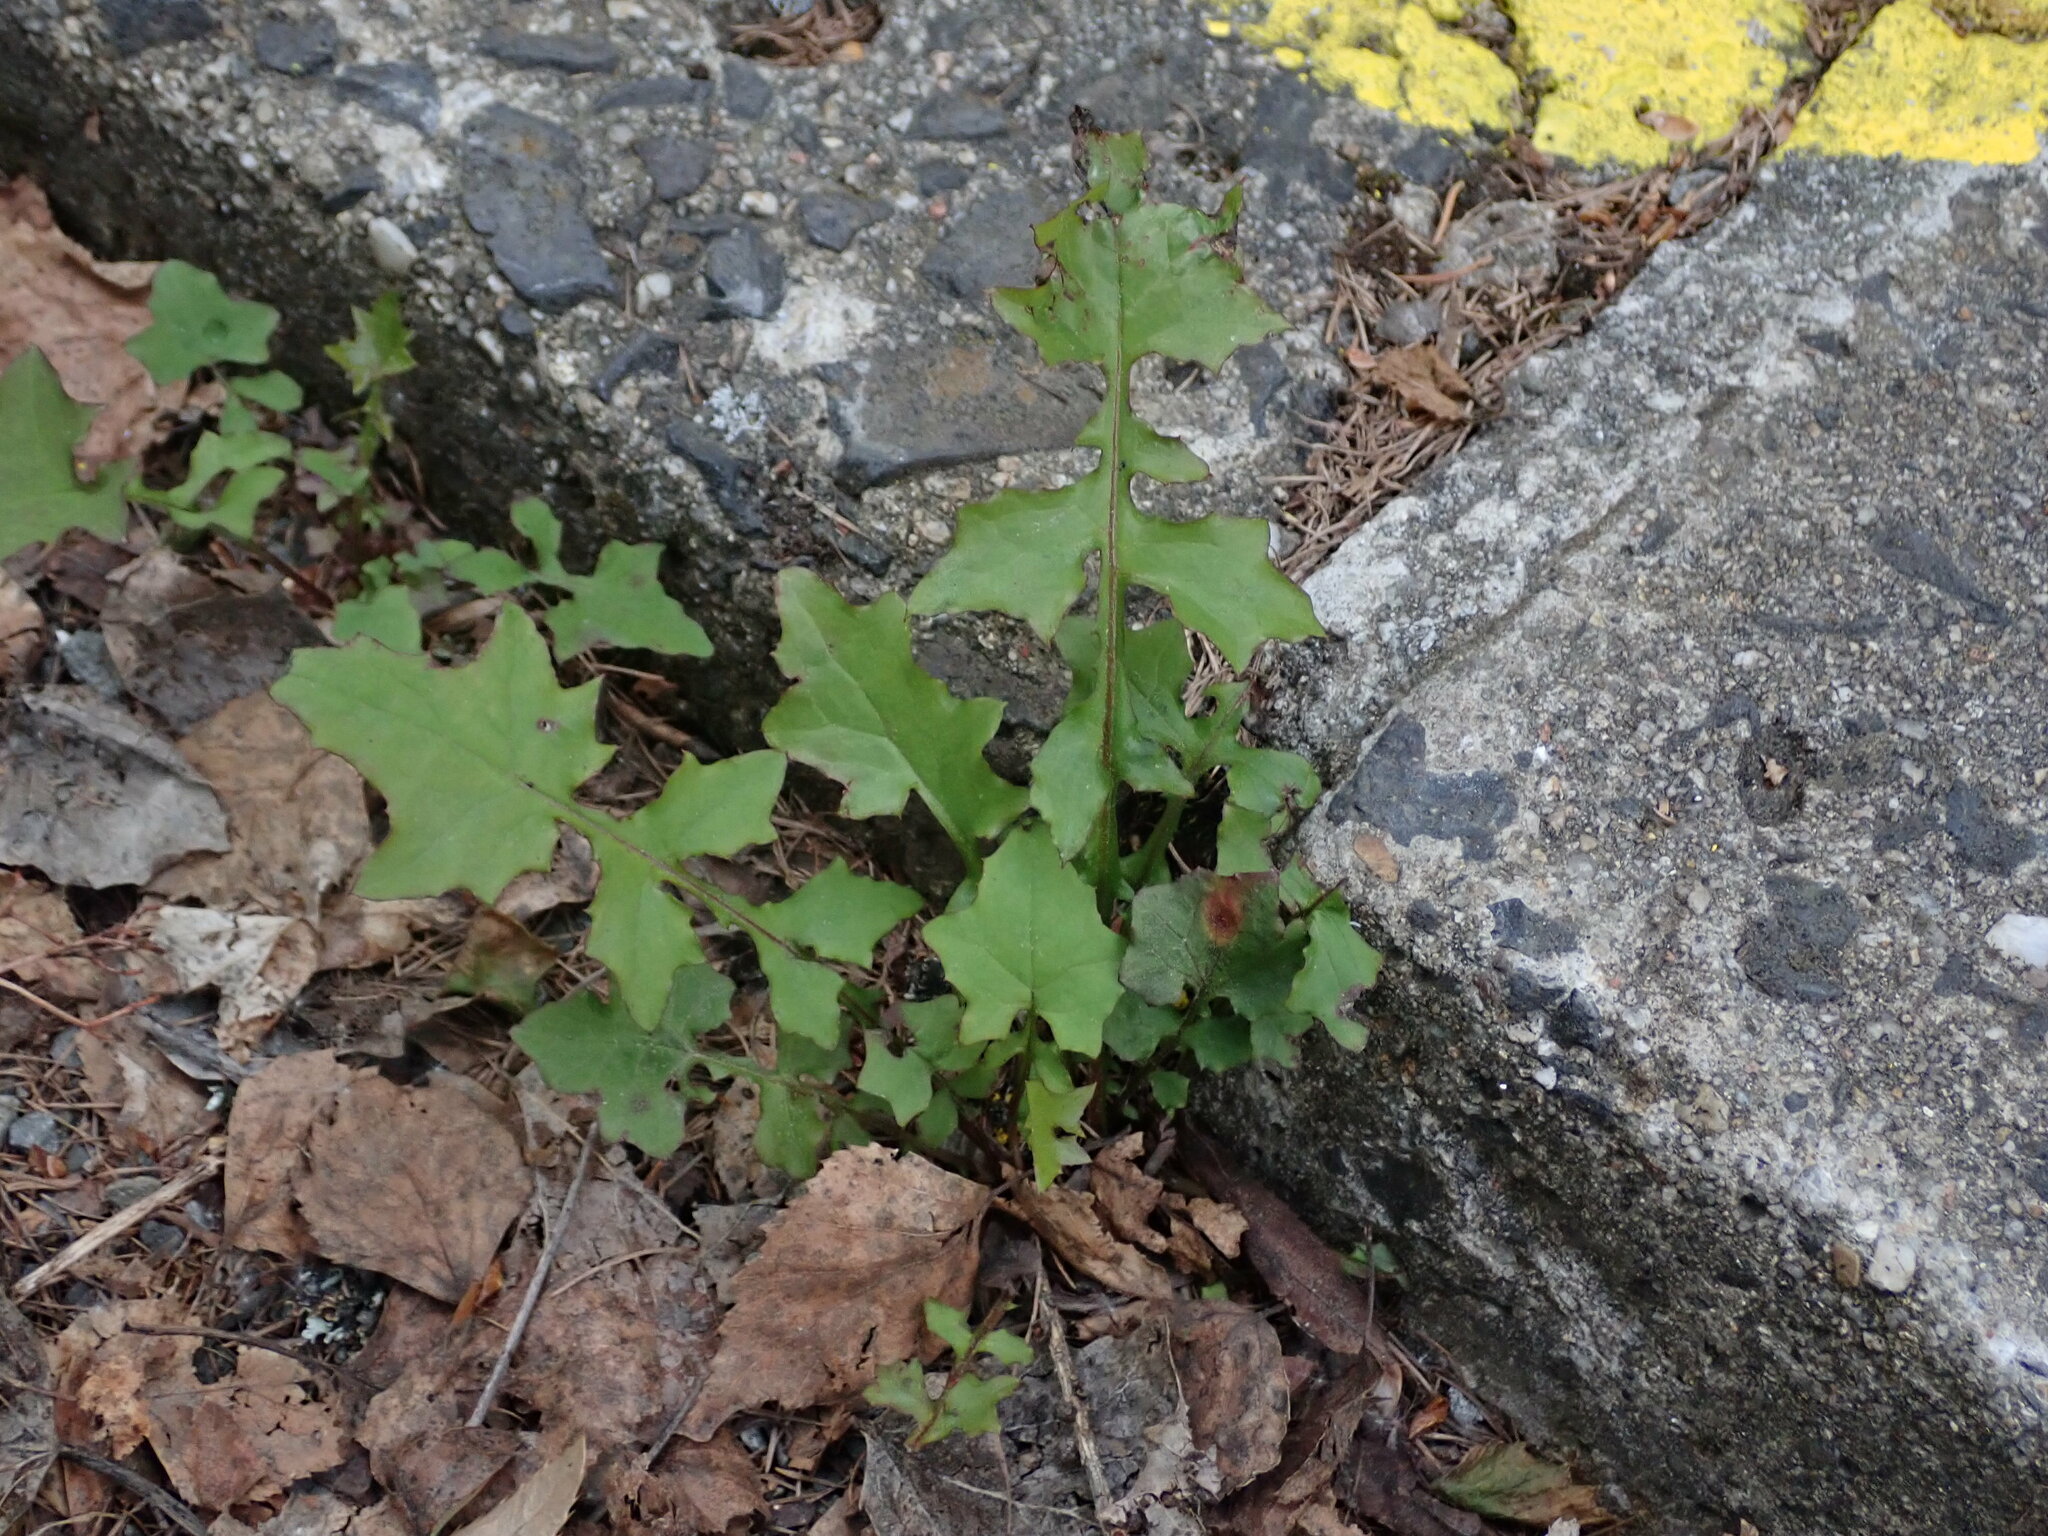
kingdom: Plantae
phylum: Tracheophyta
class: Magnoliopsida
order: Asterales
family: Asteraceae
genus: Mycelis
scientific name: Mycelis muralis
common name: Wall lettuce
